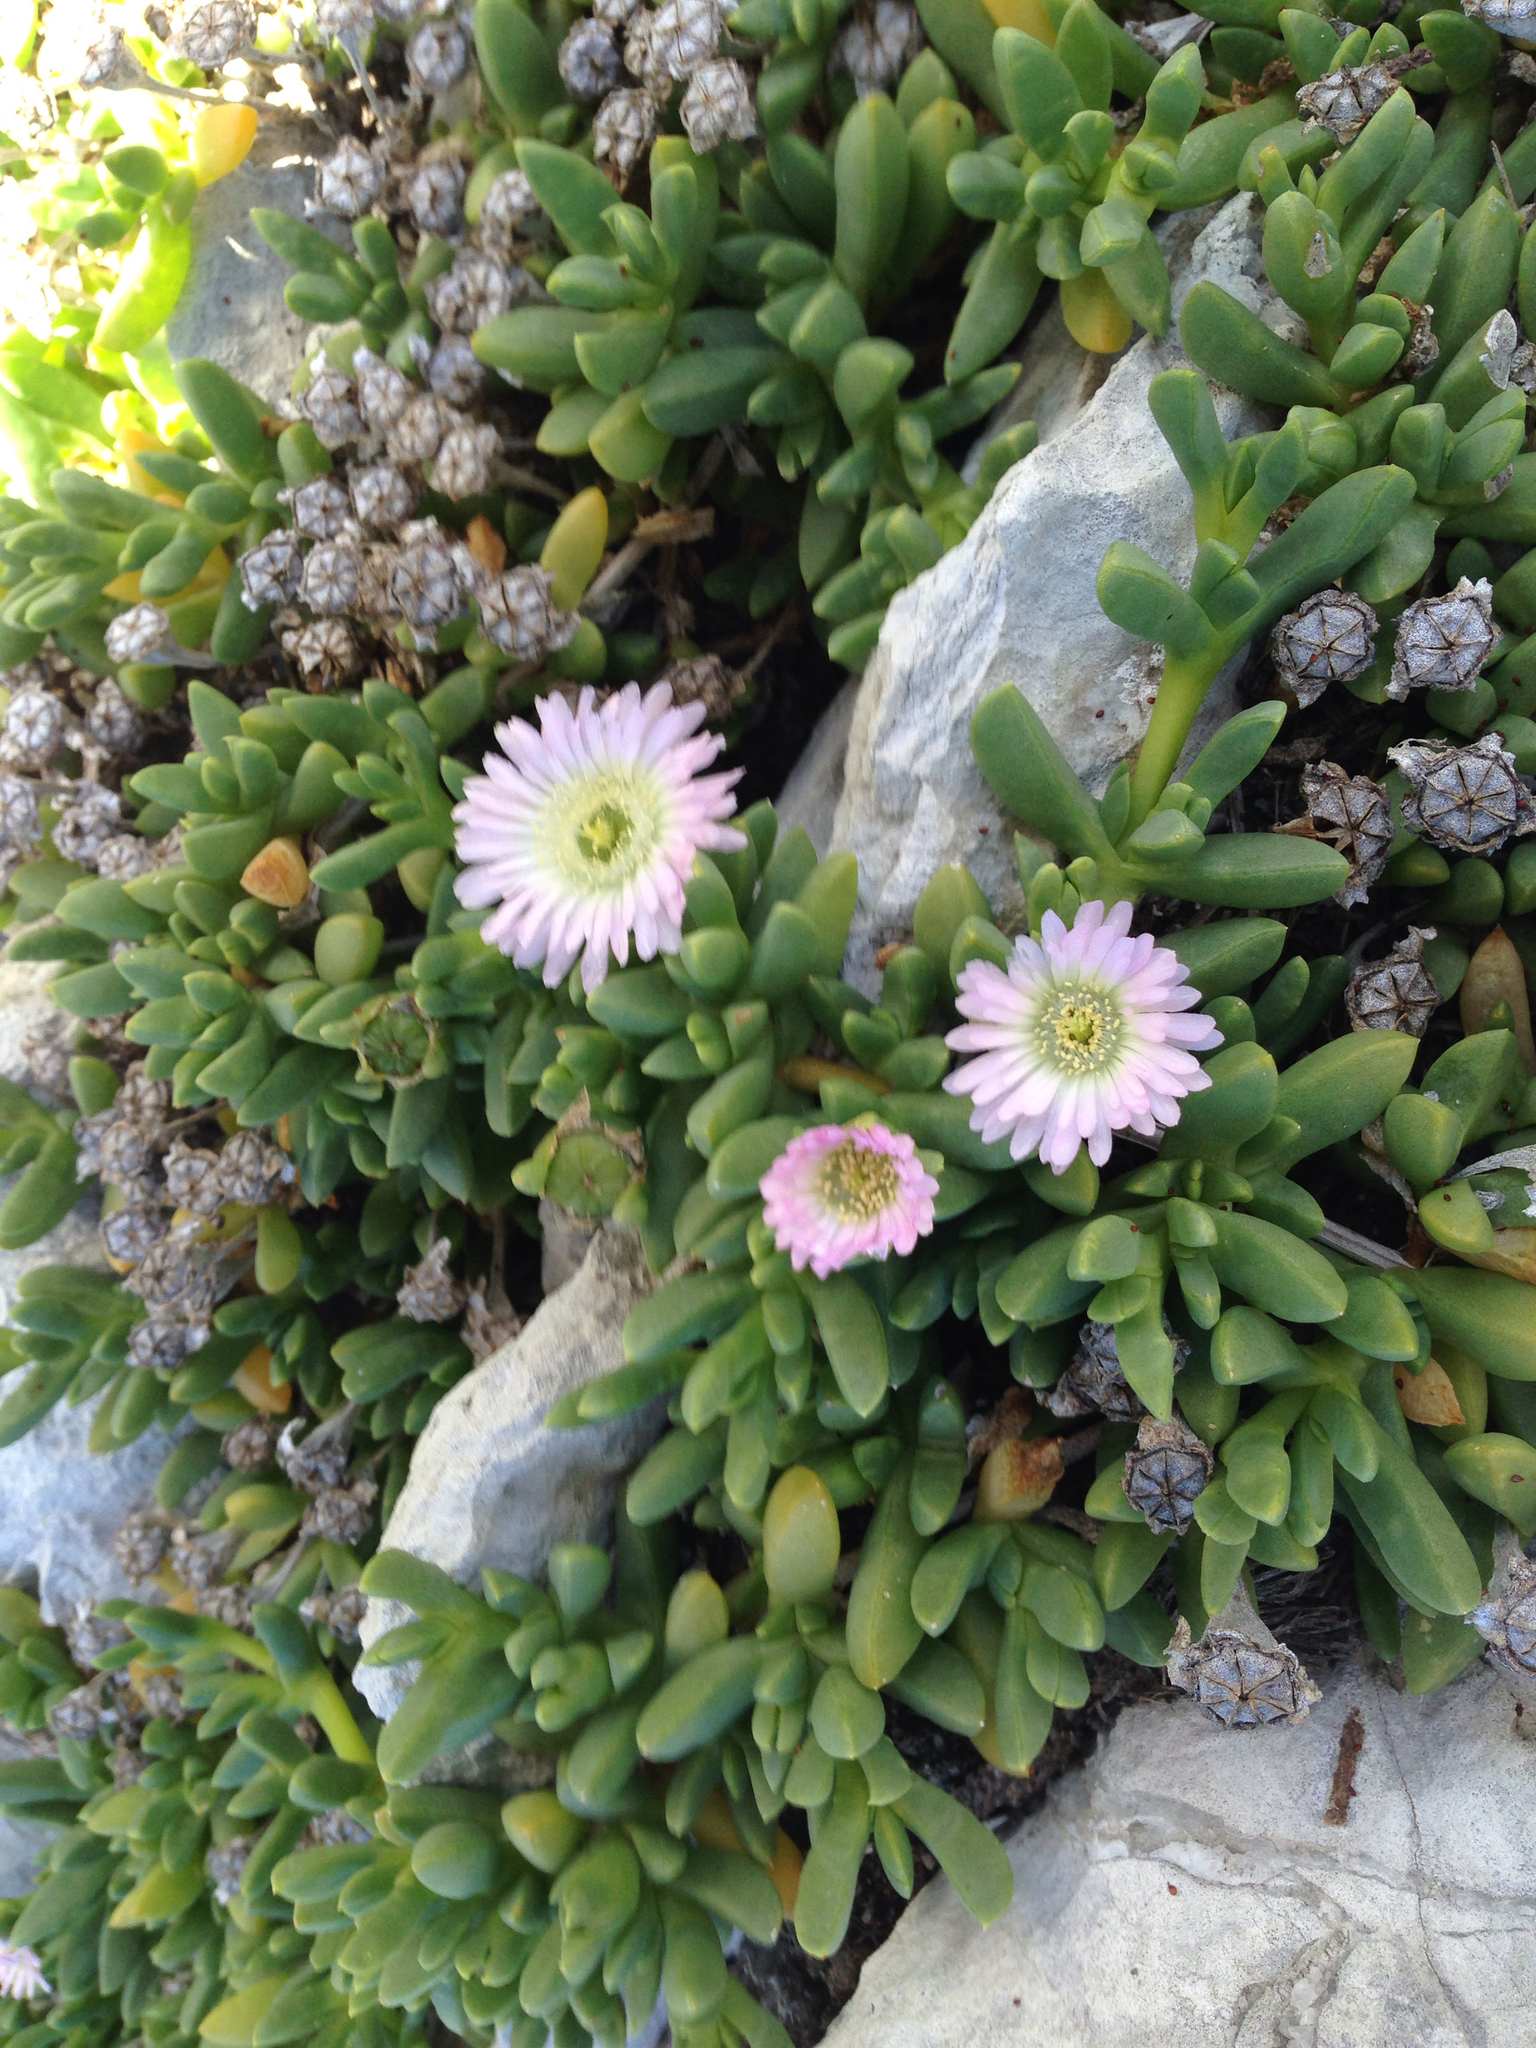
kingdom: Plantae
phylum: Tracheophyta
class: Magnoliopsida
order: Caryophyllales
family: Aizoaceae
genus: Disphyma
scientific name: Disphyma australe
